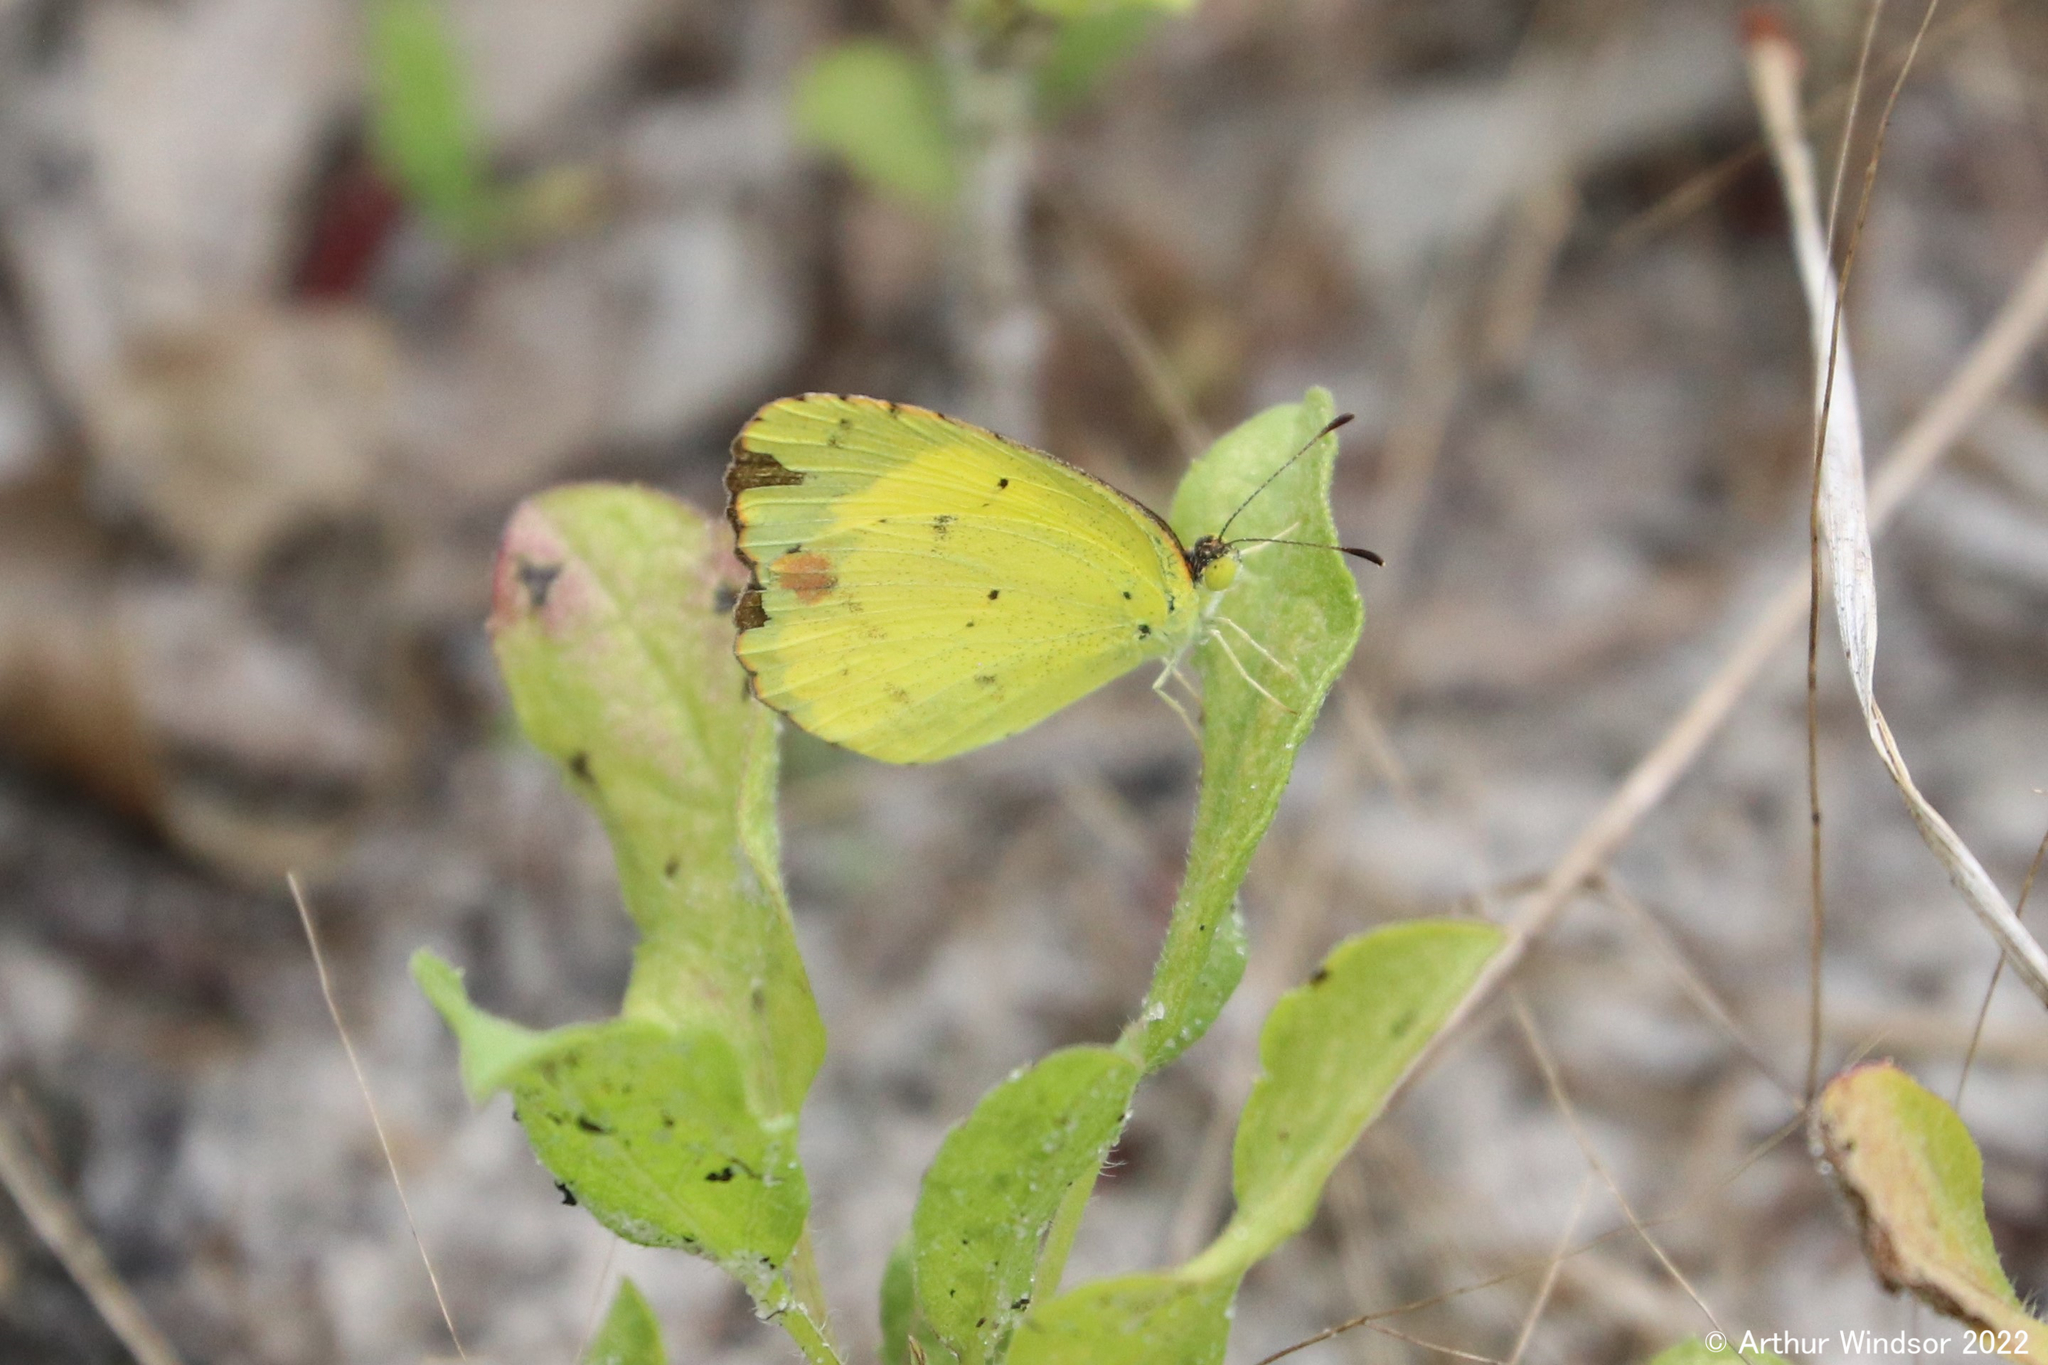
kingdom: Animalia
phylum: Arthropoda
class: Insecta
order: Lepidoptera
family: Pieridae
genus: Pyrisitia
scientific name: Pyrisitia lisa
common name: Little yellow
